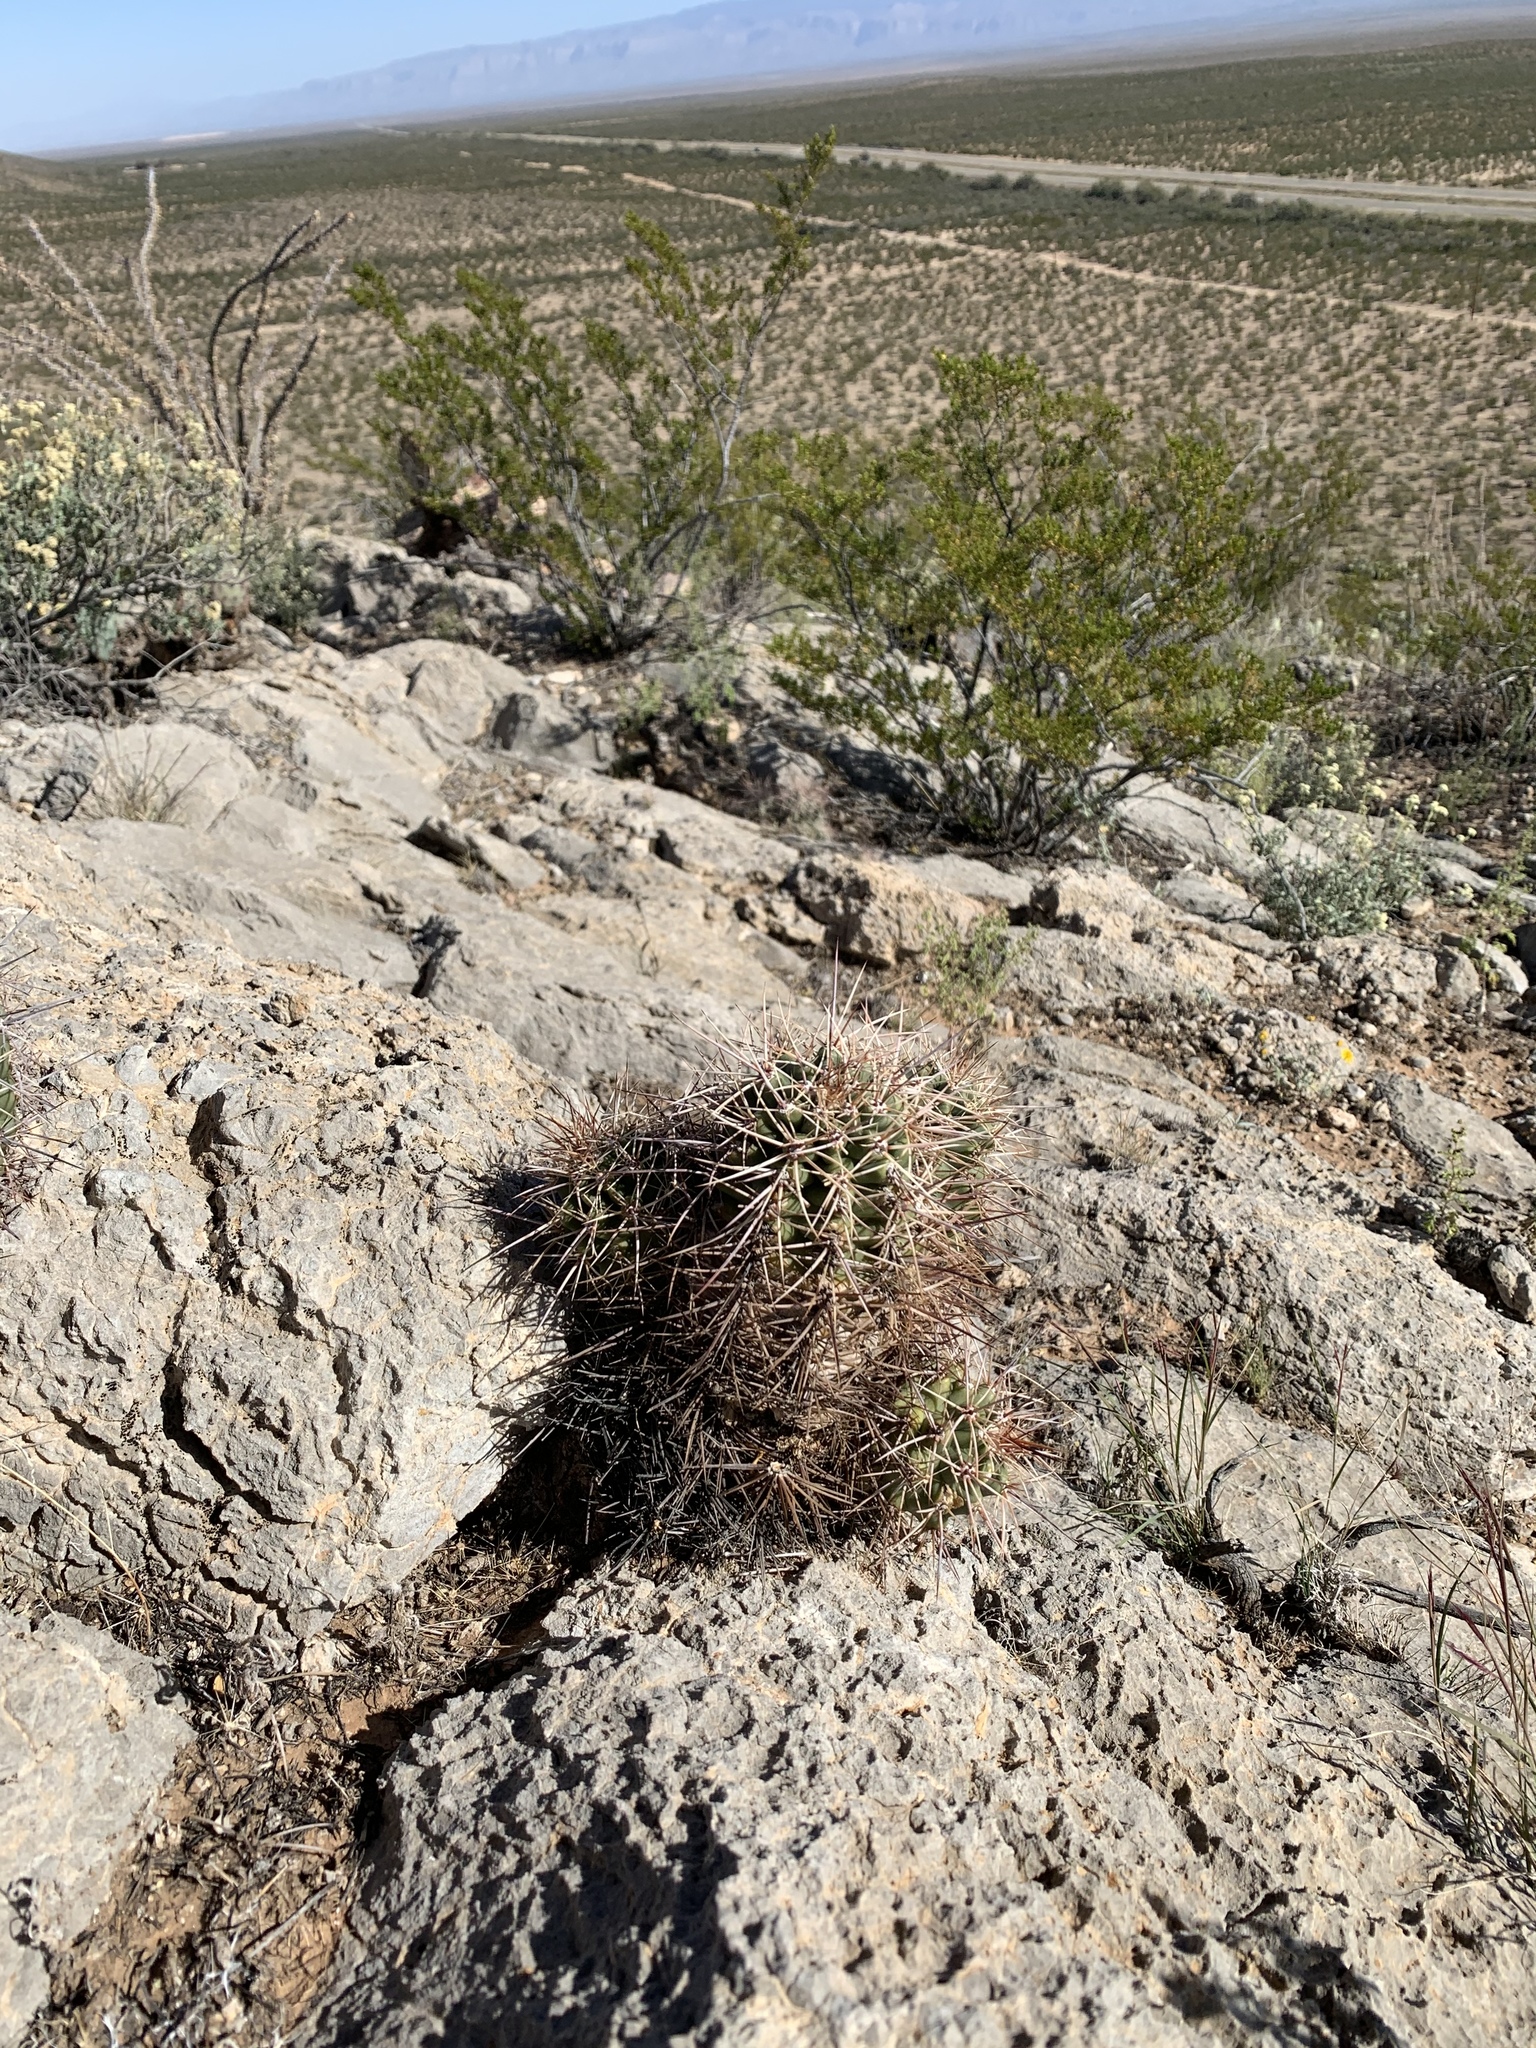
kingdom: Plantae
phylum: Tracheophyta
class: Magnoliopsida
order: Caryophyllales
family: Cactaceae
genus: Echinocereus
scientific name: Echinocereus coccineus
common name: Scarlet hedgehog cactus
